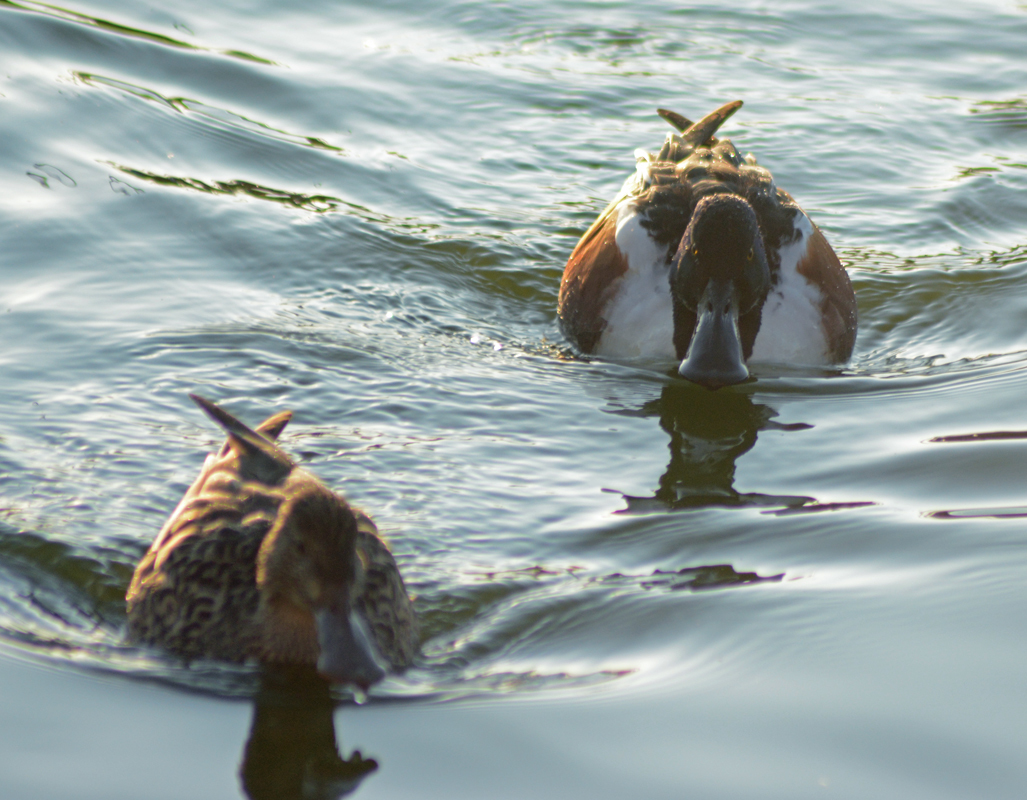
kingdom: Animalia
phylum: Chordata
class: Aves
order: Anseriformes
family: Anatidae
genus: Spatula
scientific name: Spatula clypeata
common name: Northern shoveler
